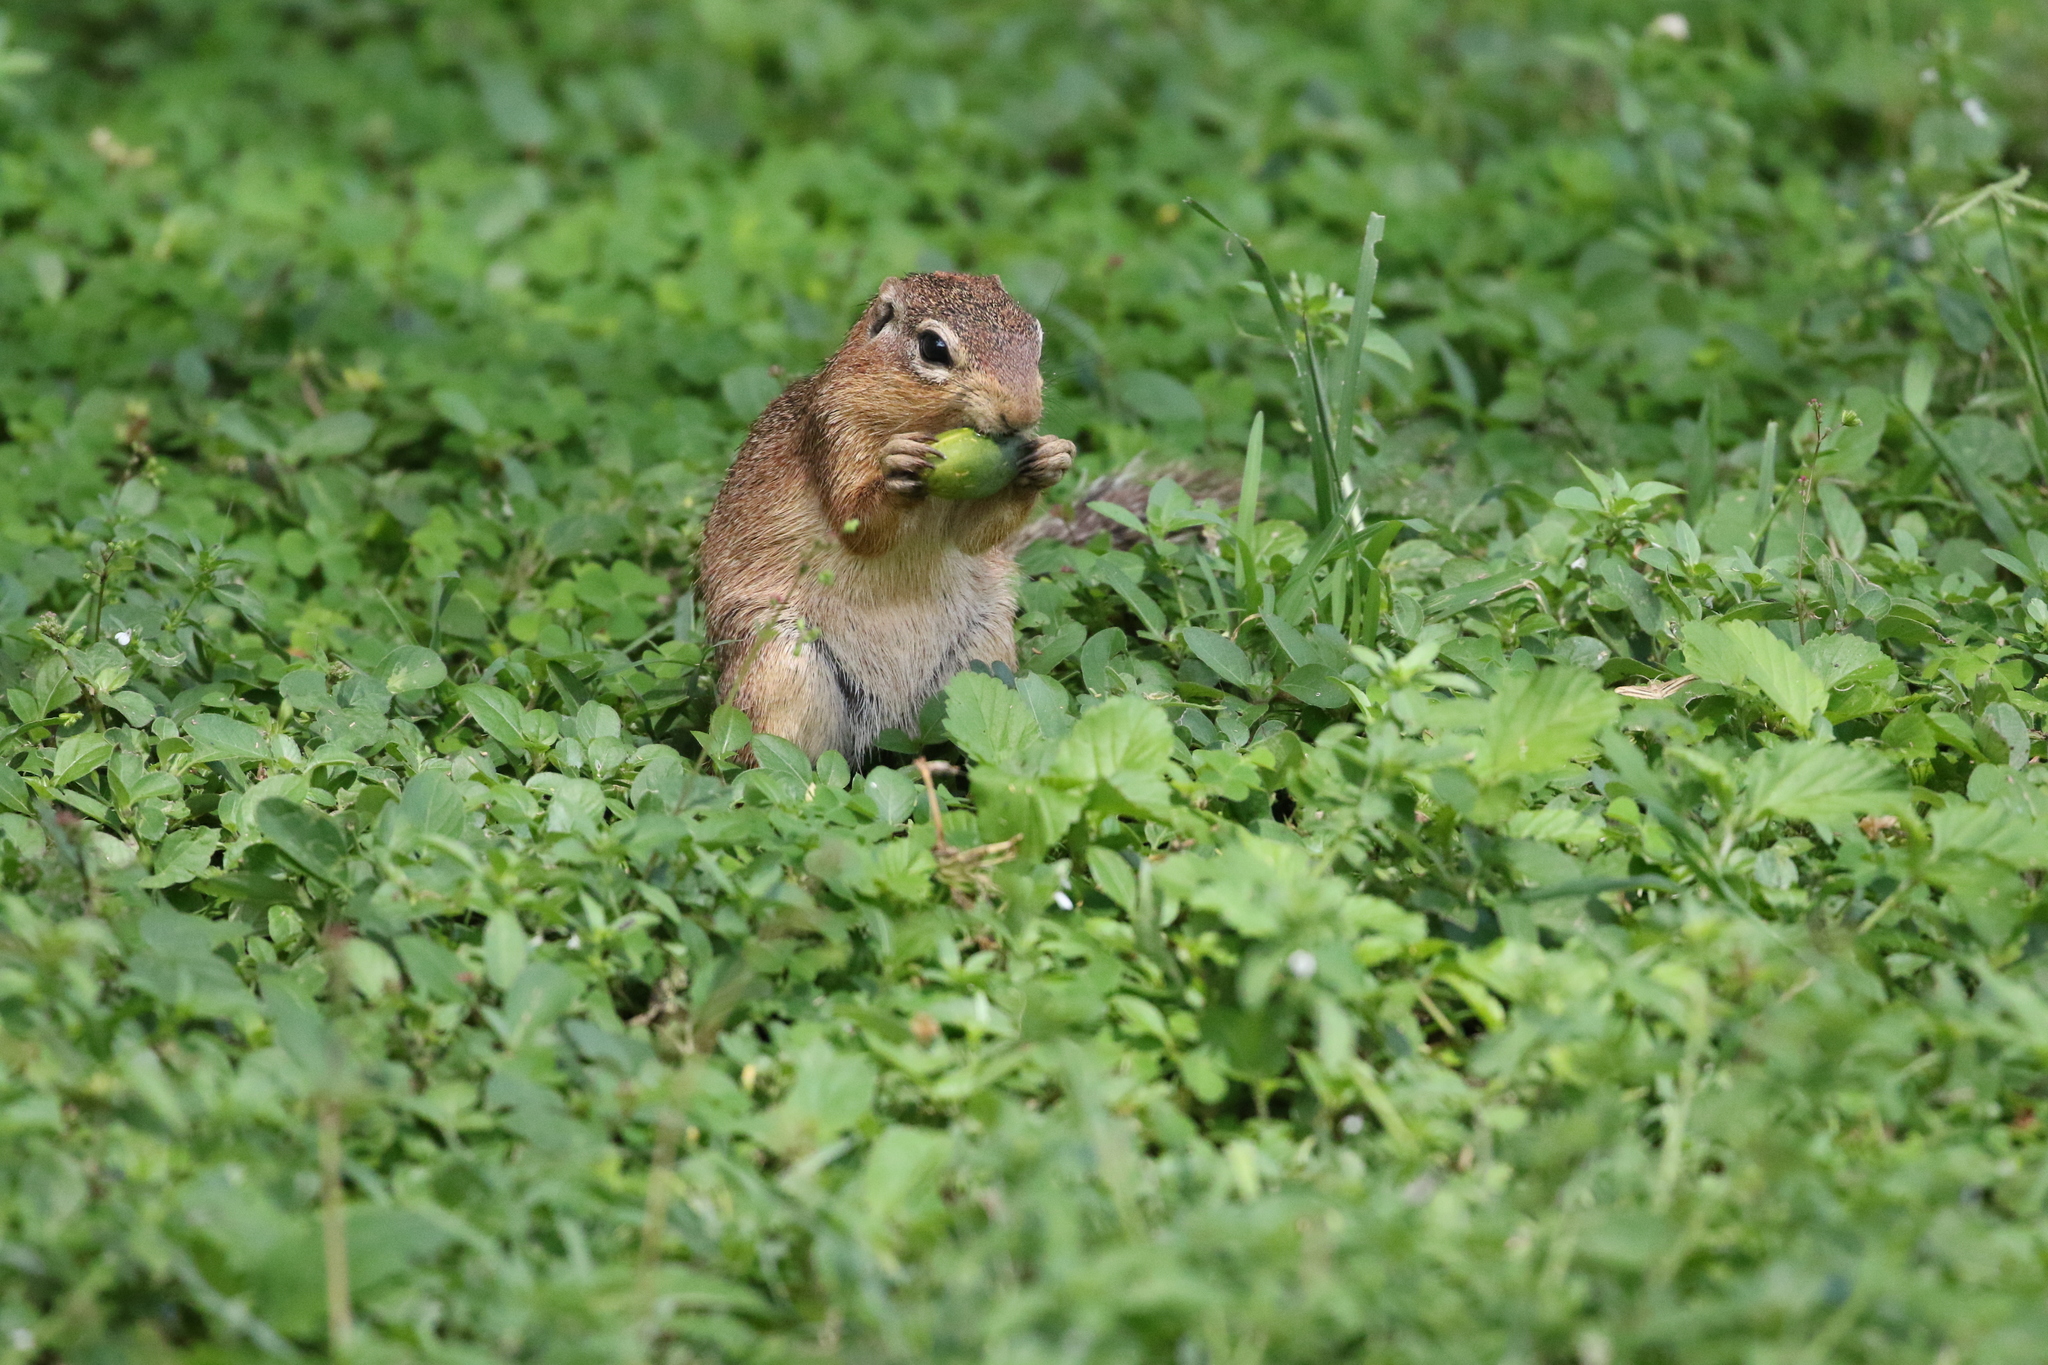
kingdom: Animalia
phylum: Chordata
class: Mammalia
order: Rodentia
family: Sciuridae
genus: Xerus
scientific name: Xerus rutilus
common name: Unstriped ground squirrel
